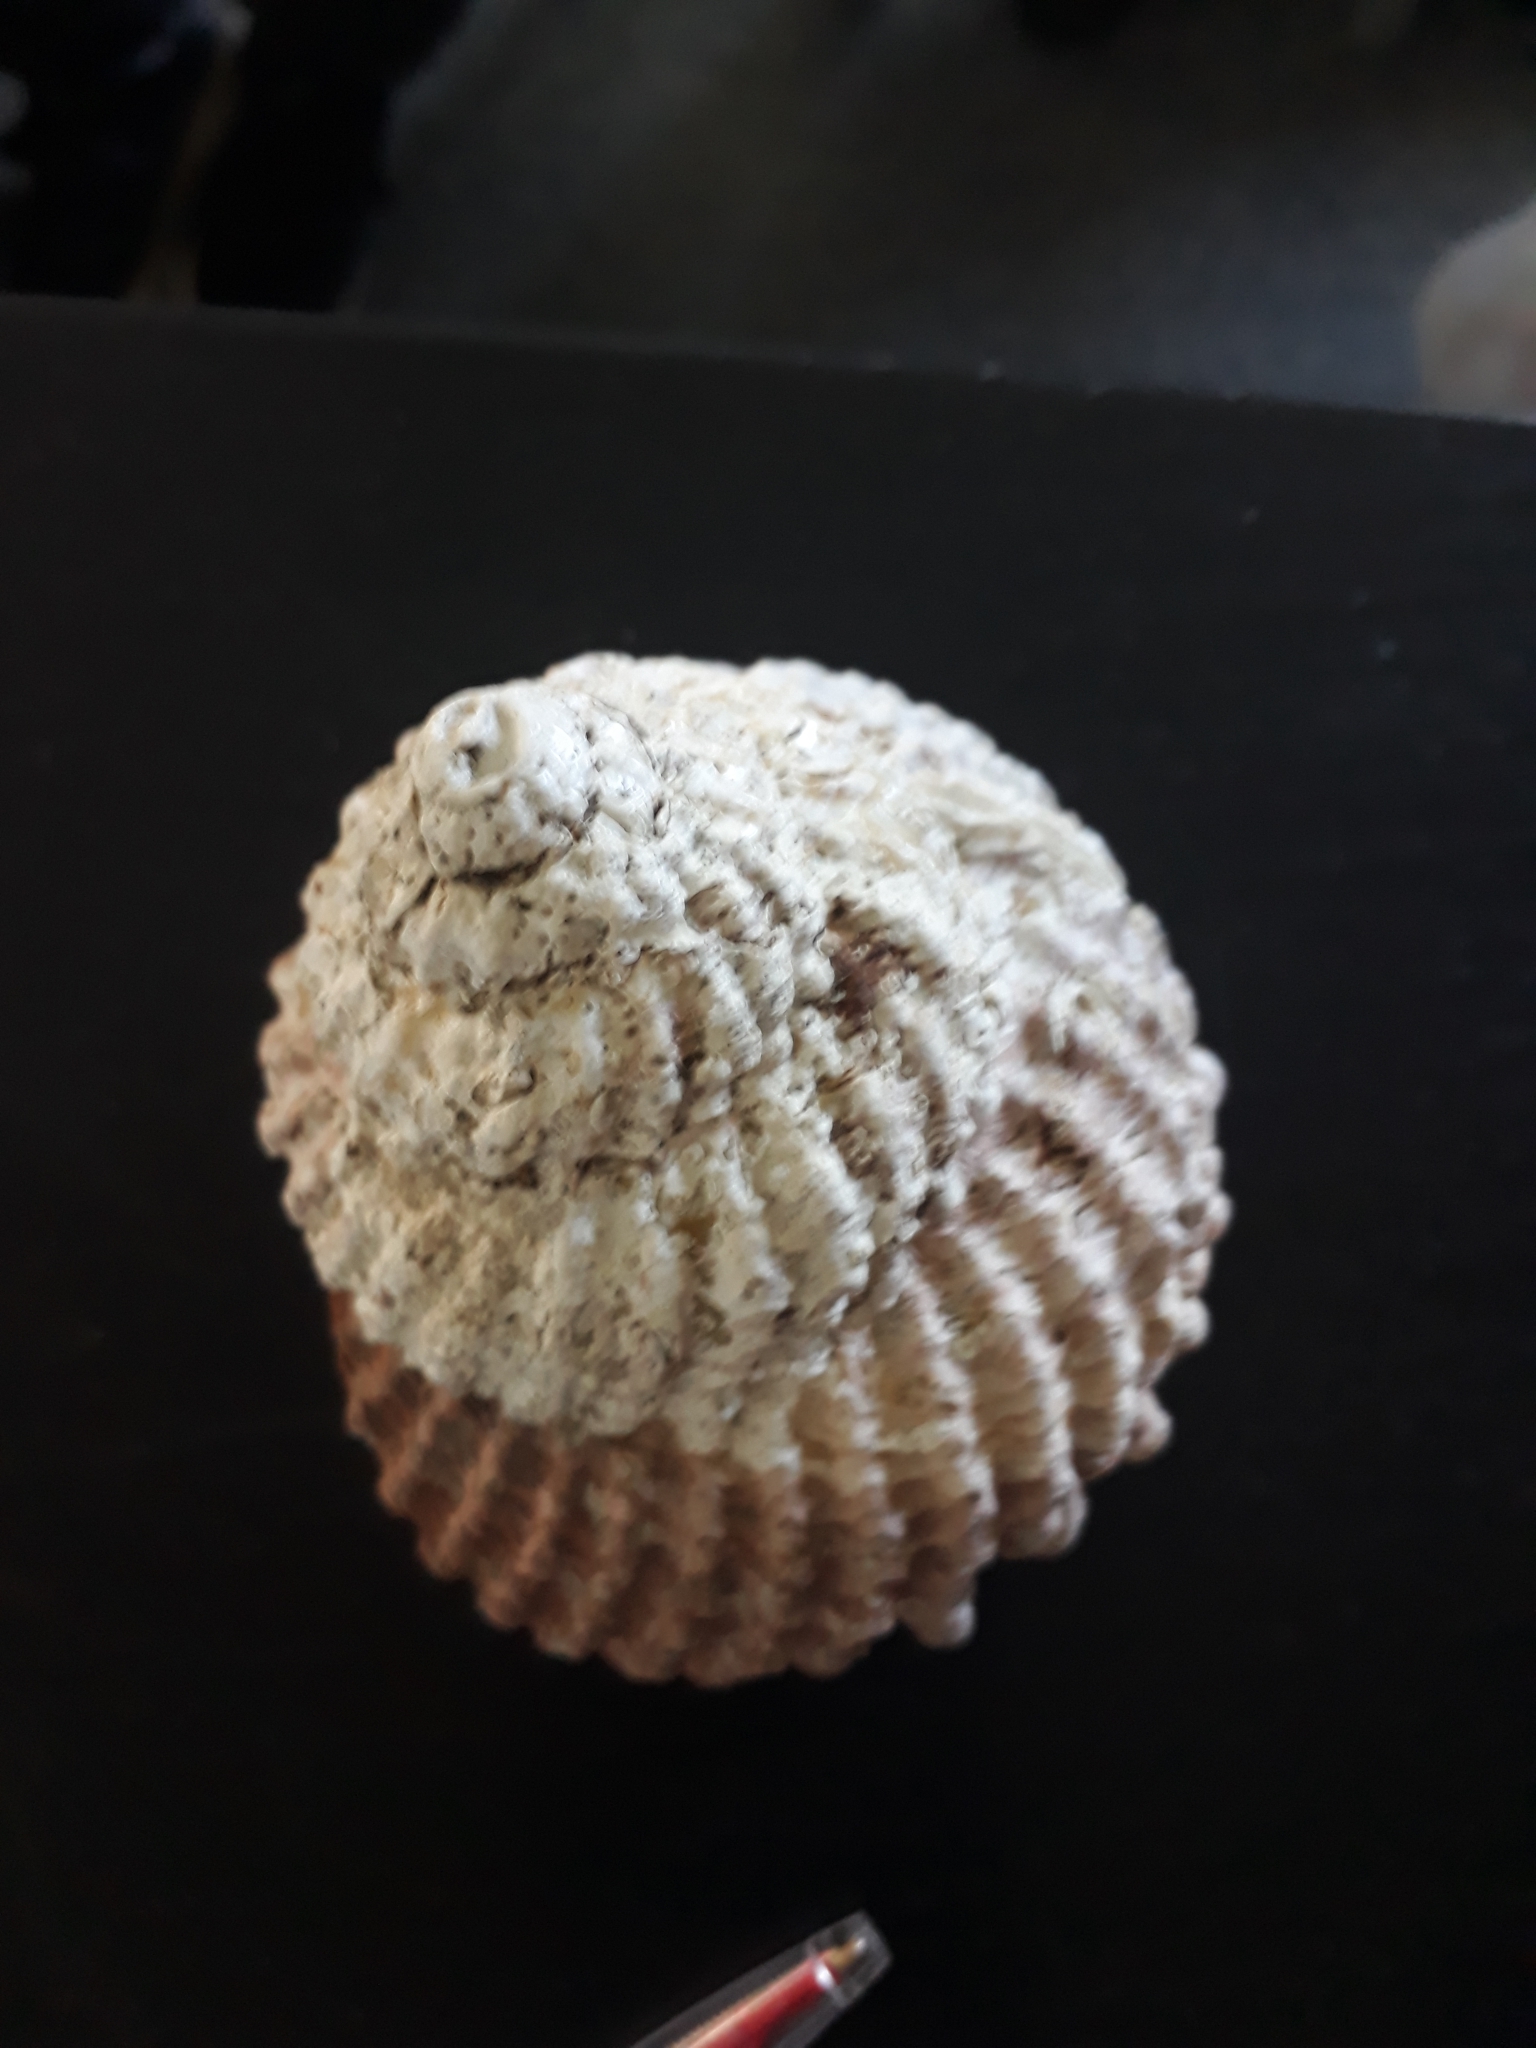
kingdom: Animalia
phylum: Mollusca
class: Gastropoda
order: Trochida
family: Turbinidae
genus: Cookia
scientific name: Cookia sulcata
